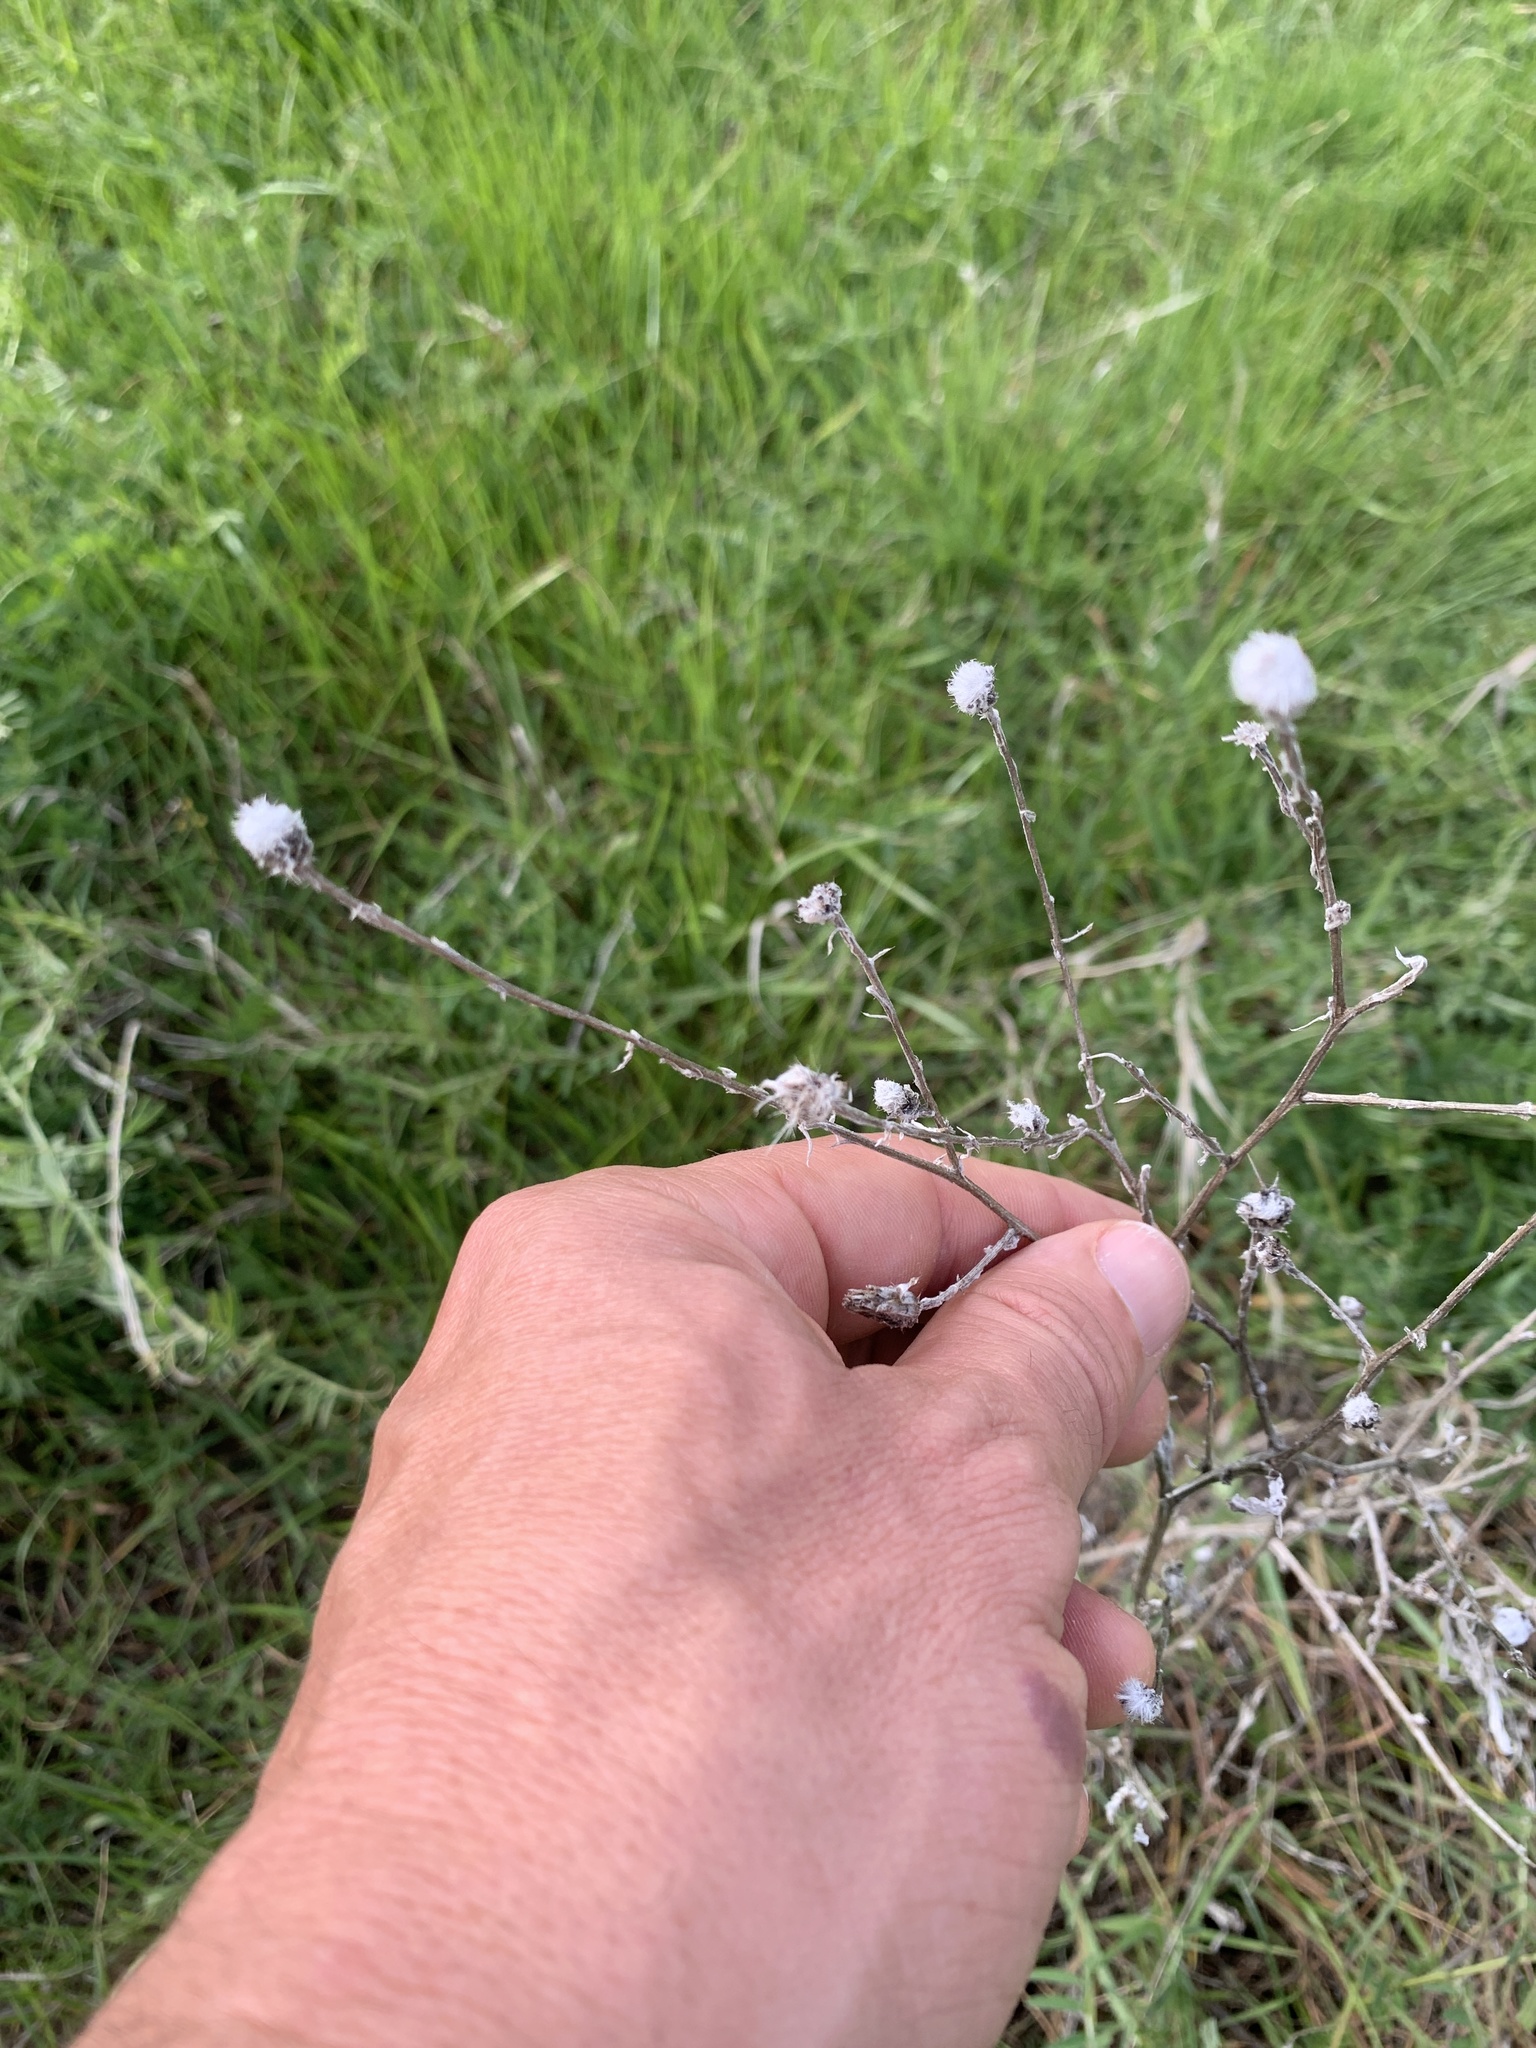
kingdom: Plantae
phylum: Tracheophyta
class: Magnoliopsida
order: Asterales
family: Asteraceae
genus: Centaurea
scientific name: Centaurea solstitialis
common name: Yellow star-thistle
